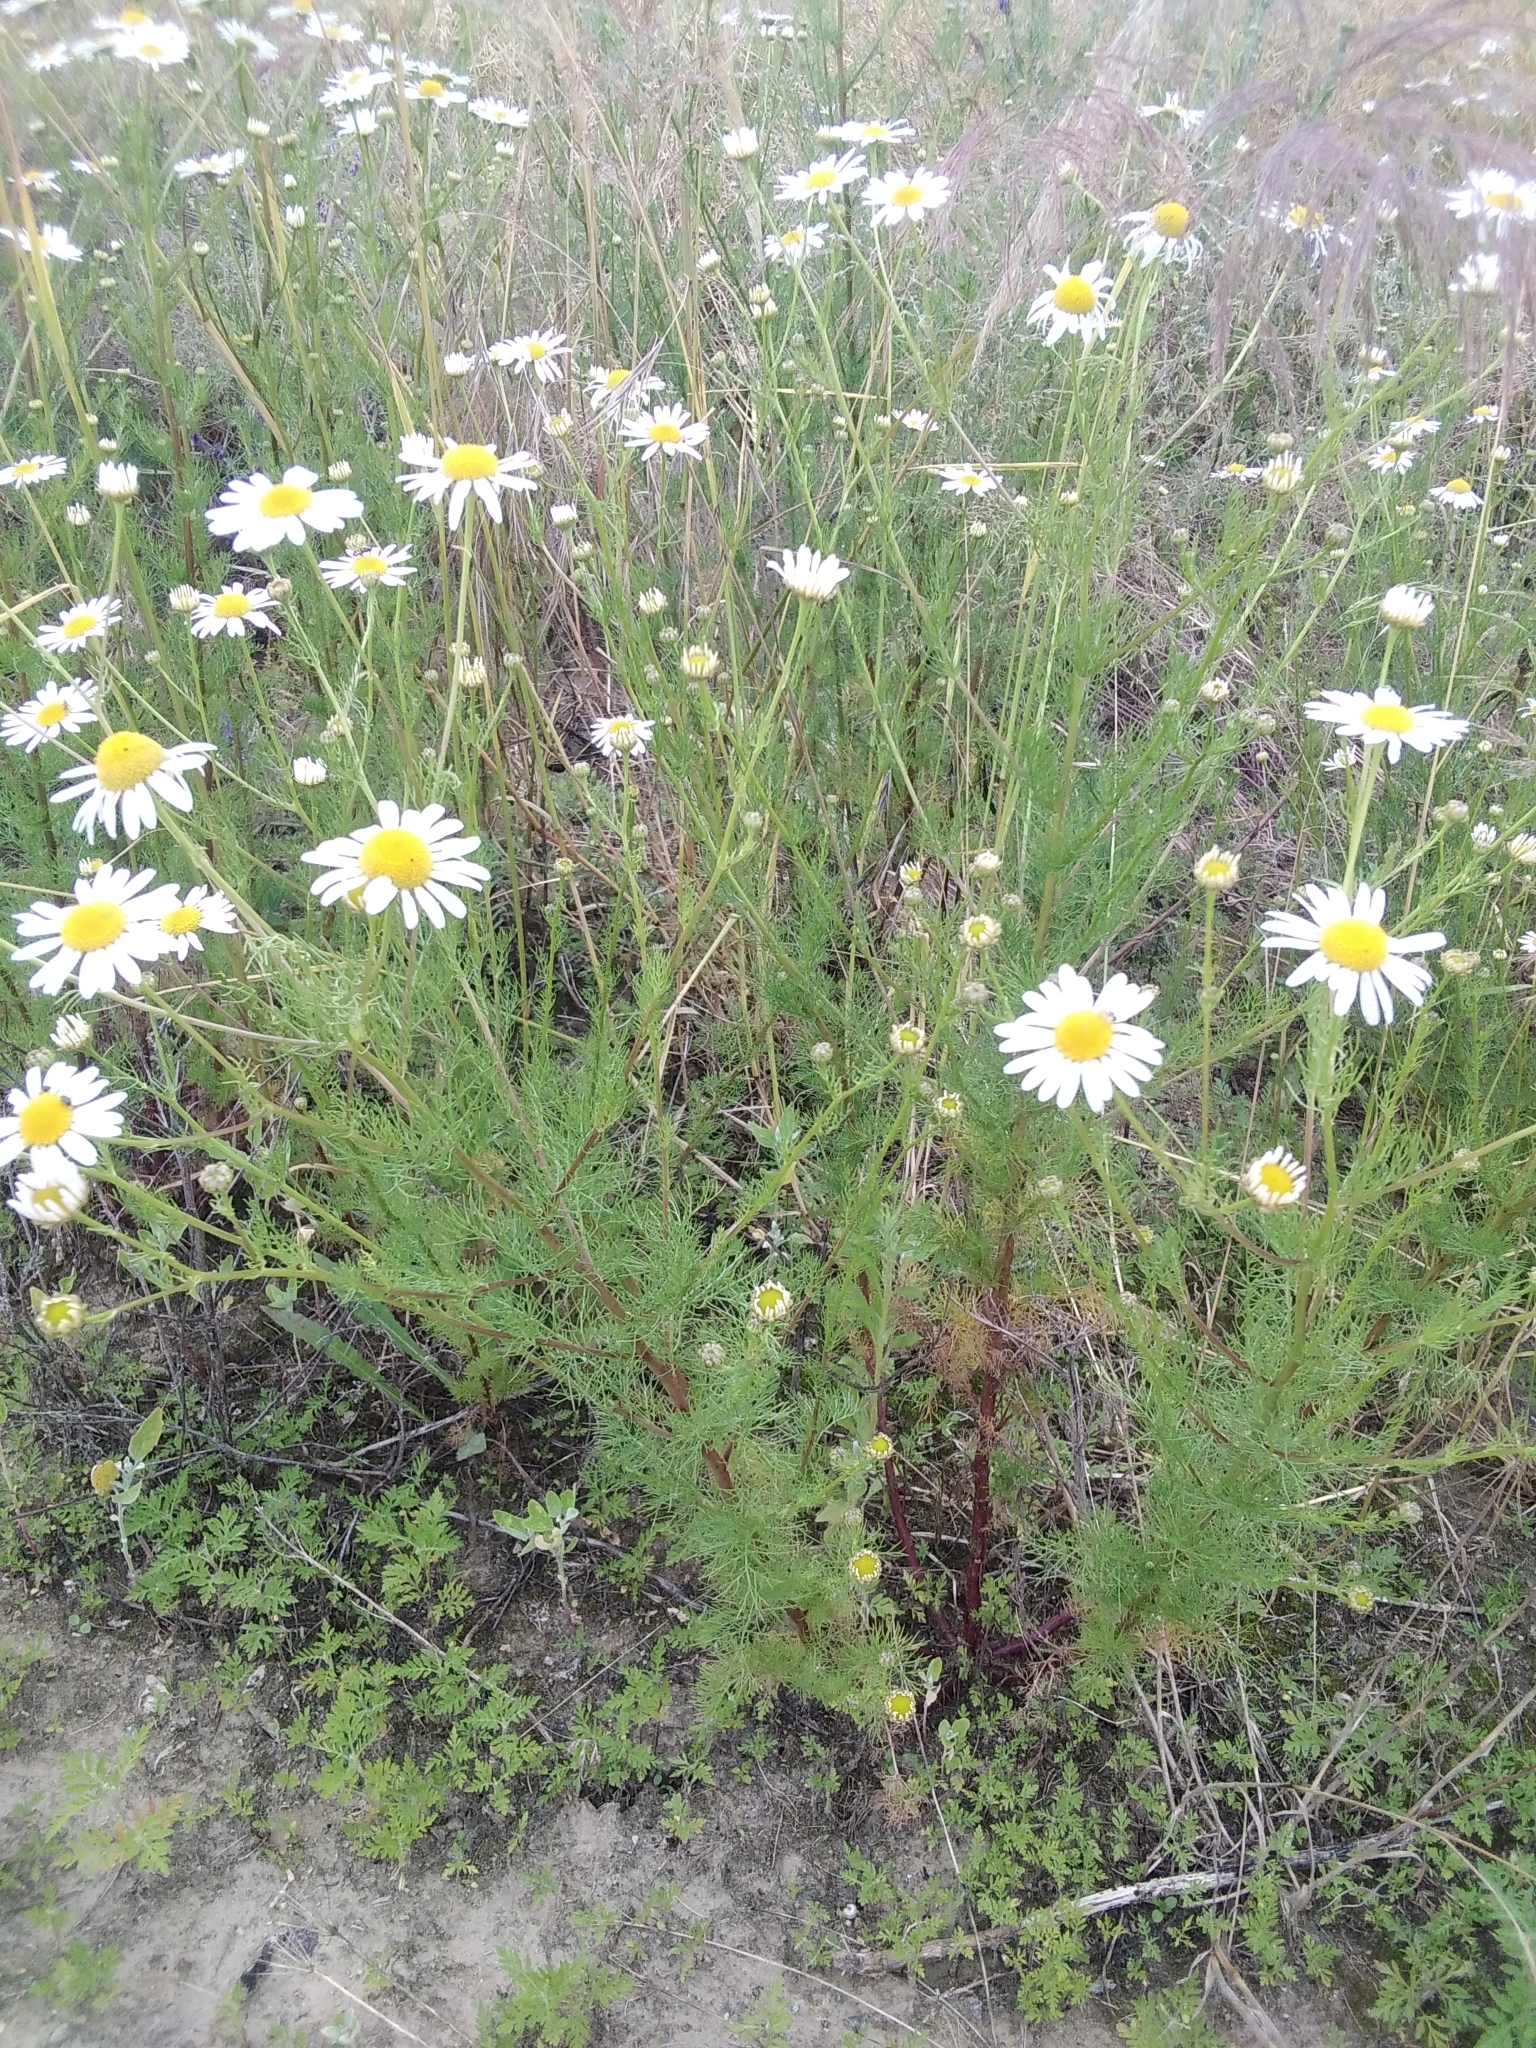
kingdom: Plantae
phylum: Tracheophyta
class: Magnoliopsida
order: Asterales
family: Asteraceae
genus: Tripleurospermum
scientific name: Tripleurospermum inodorum
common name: Scentless mayweed
